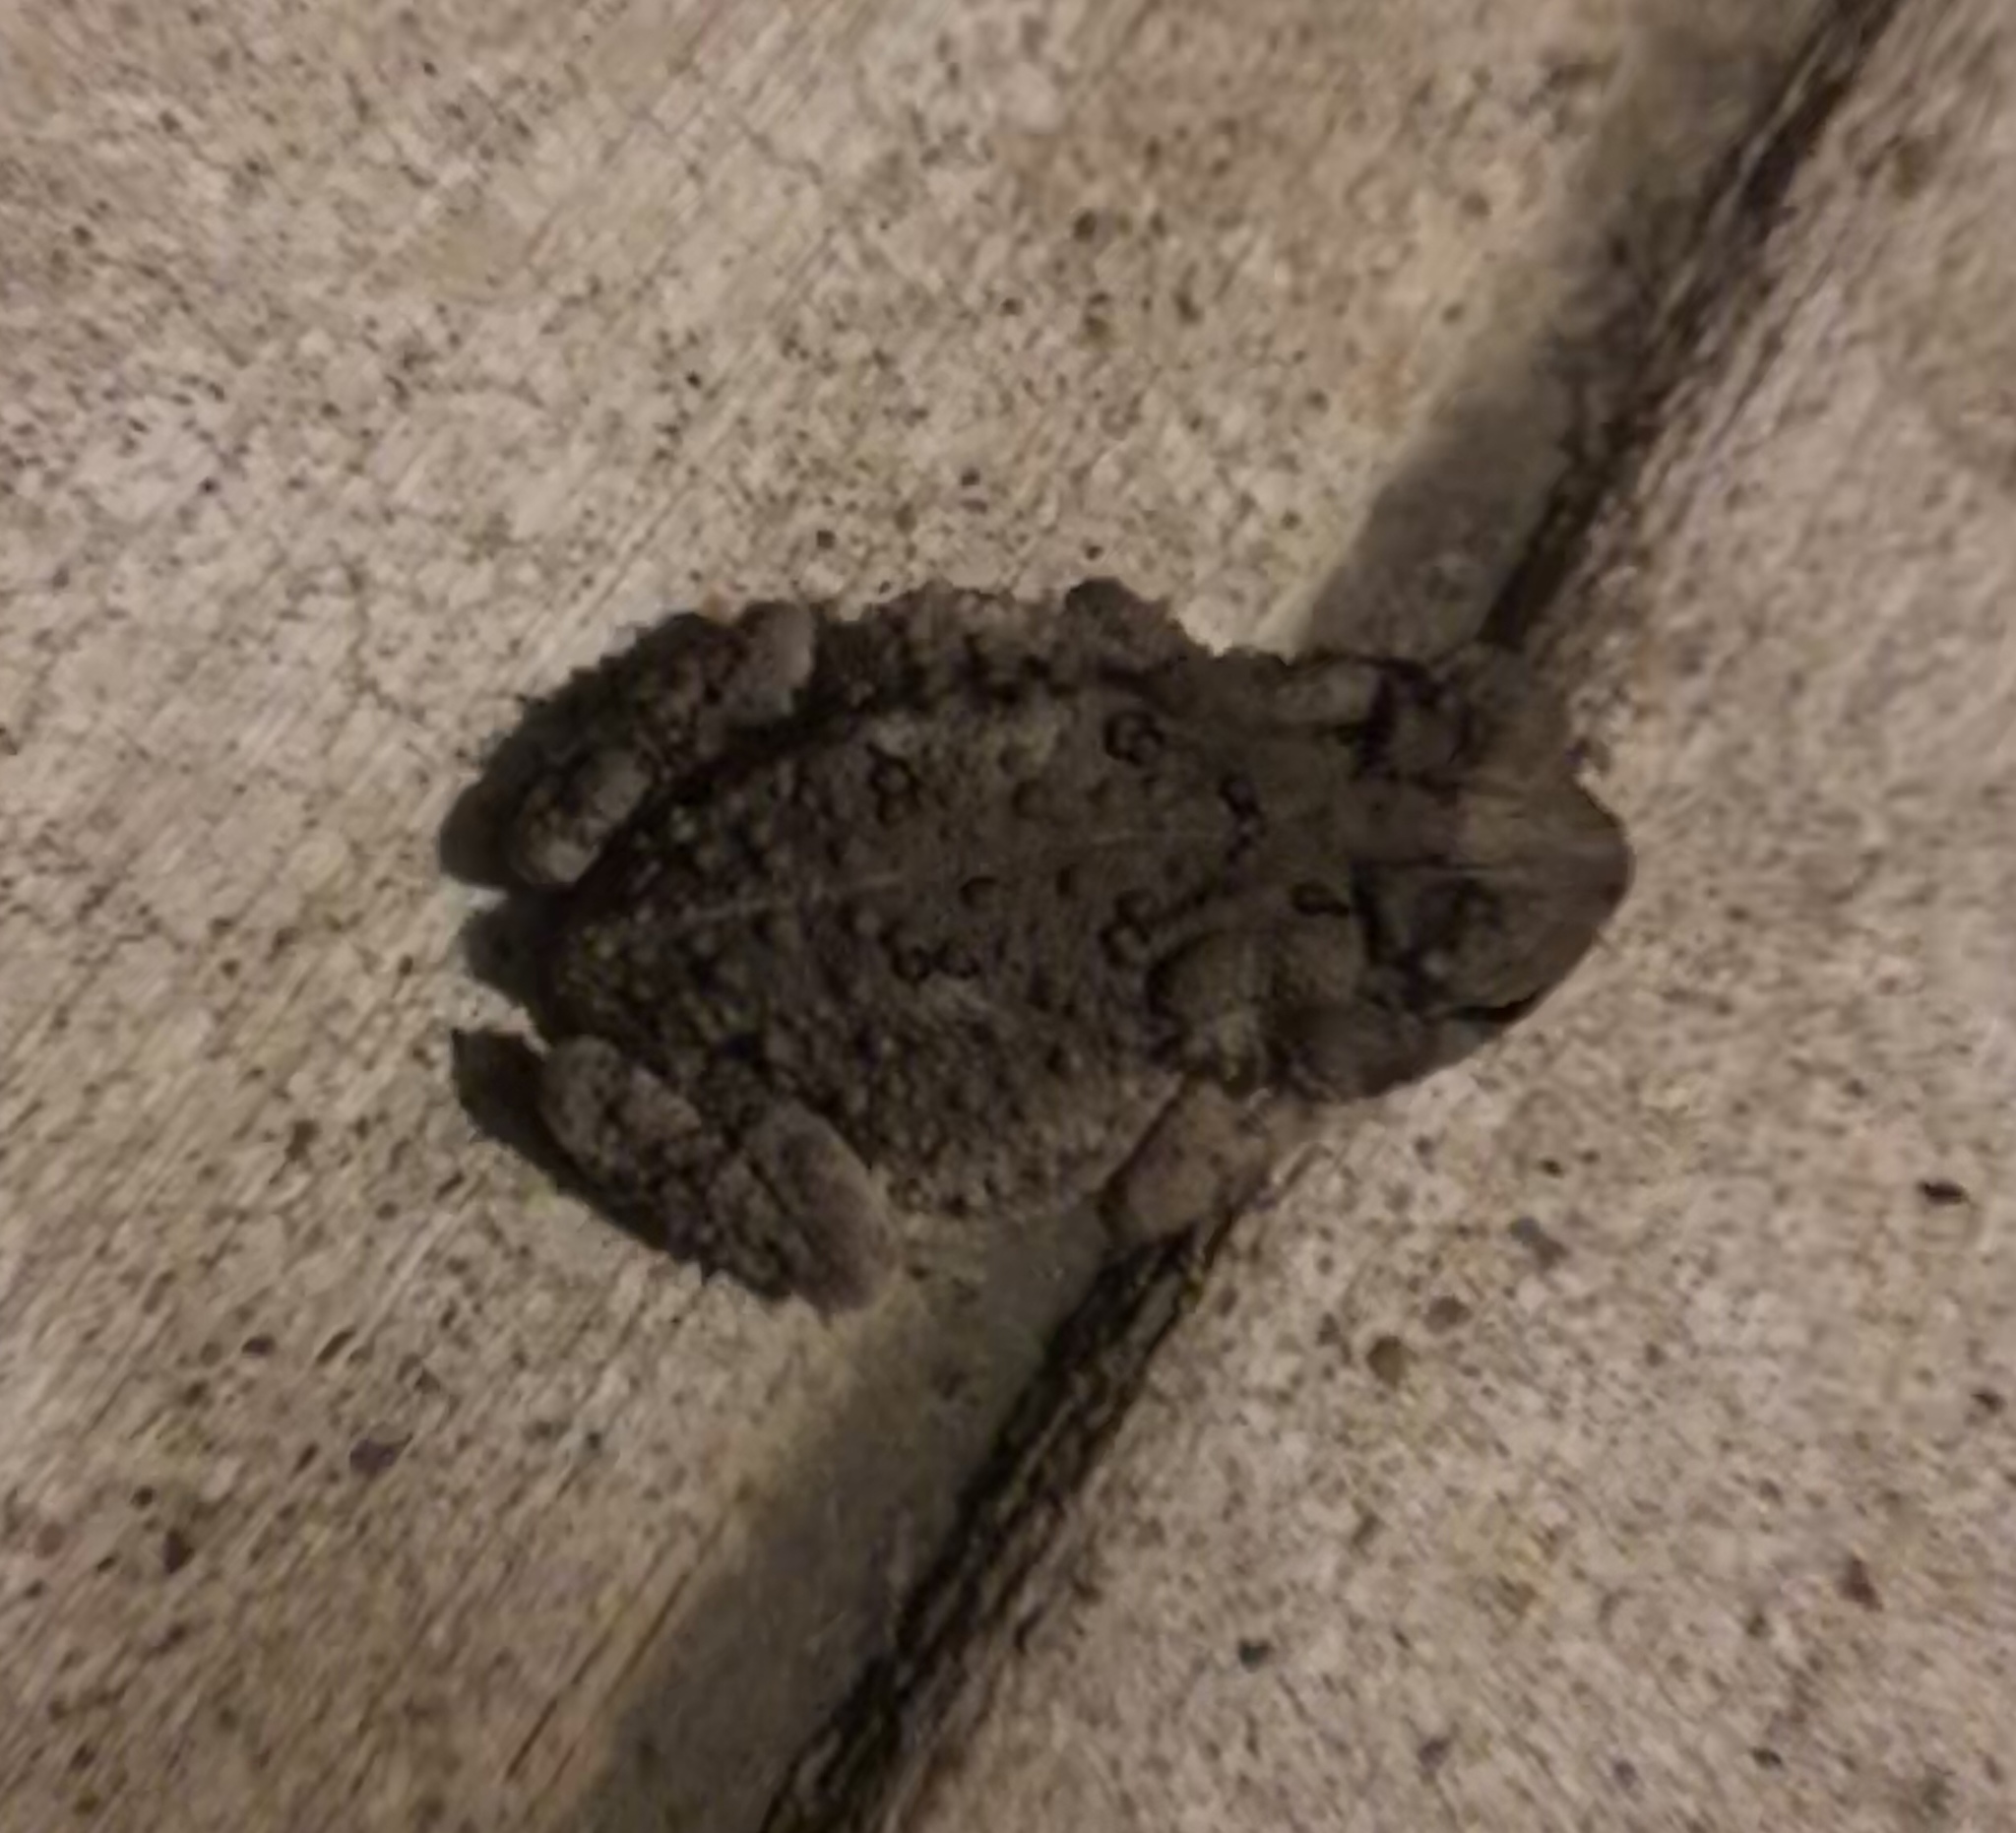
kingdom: Animalia
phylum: Chordata
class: Amphibia
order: Anura
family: Bufonidae
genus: Anaxyrus
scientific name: Anaxyrus fowleri
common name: Fowler's toad
